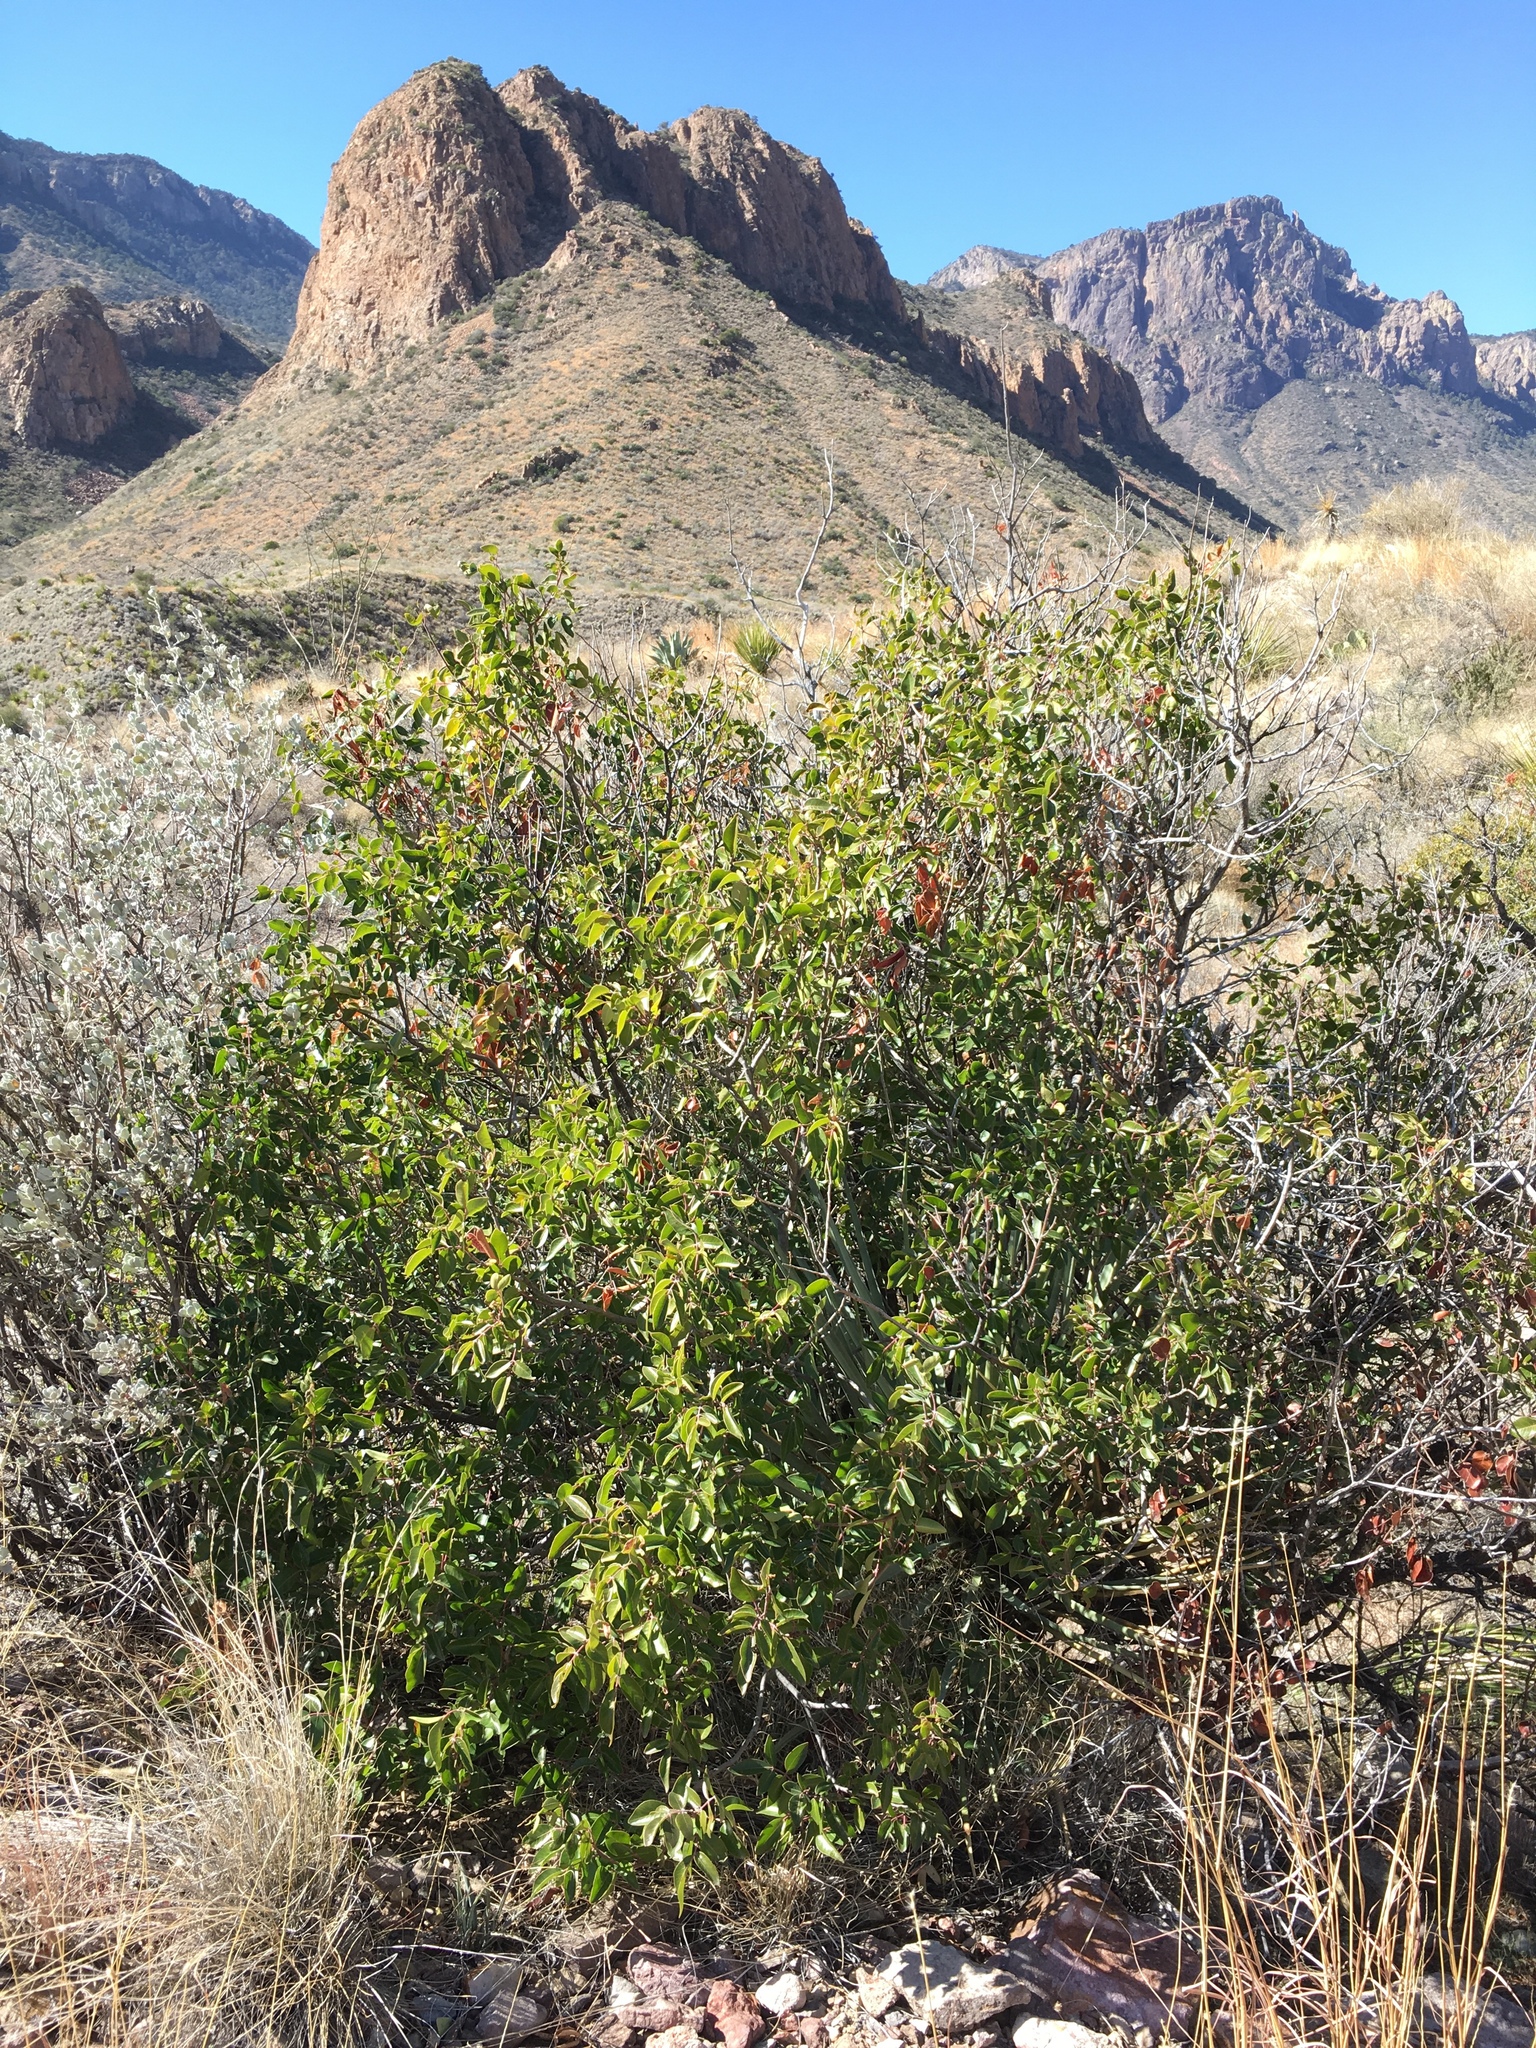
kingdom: Plantae
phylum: Tracheophyta
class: Magnoliopsida
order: Sapindales
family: Anacardiaceae
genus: Rhus
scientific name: Rhus virens
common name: Evergreen sumac
